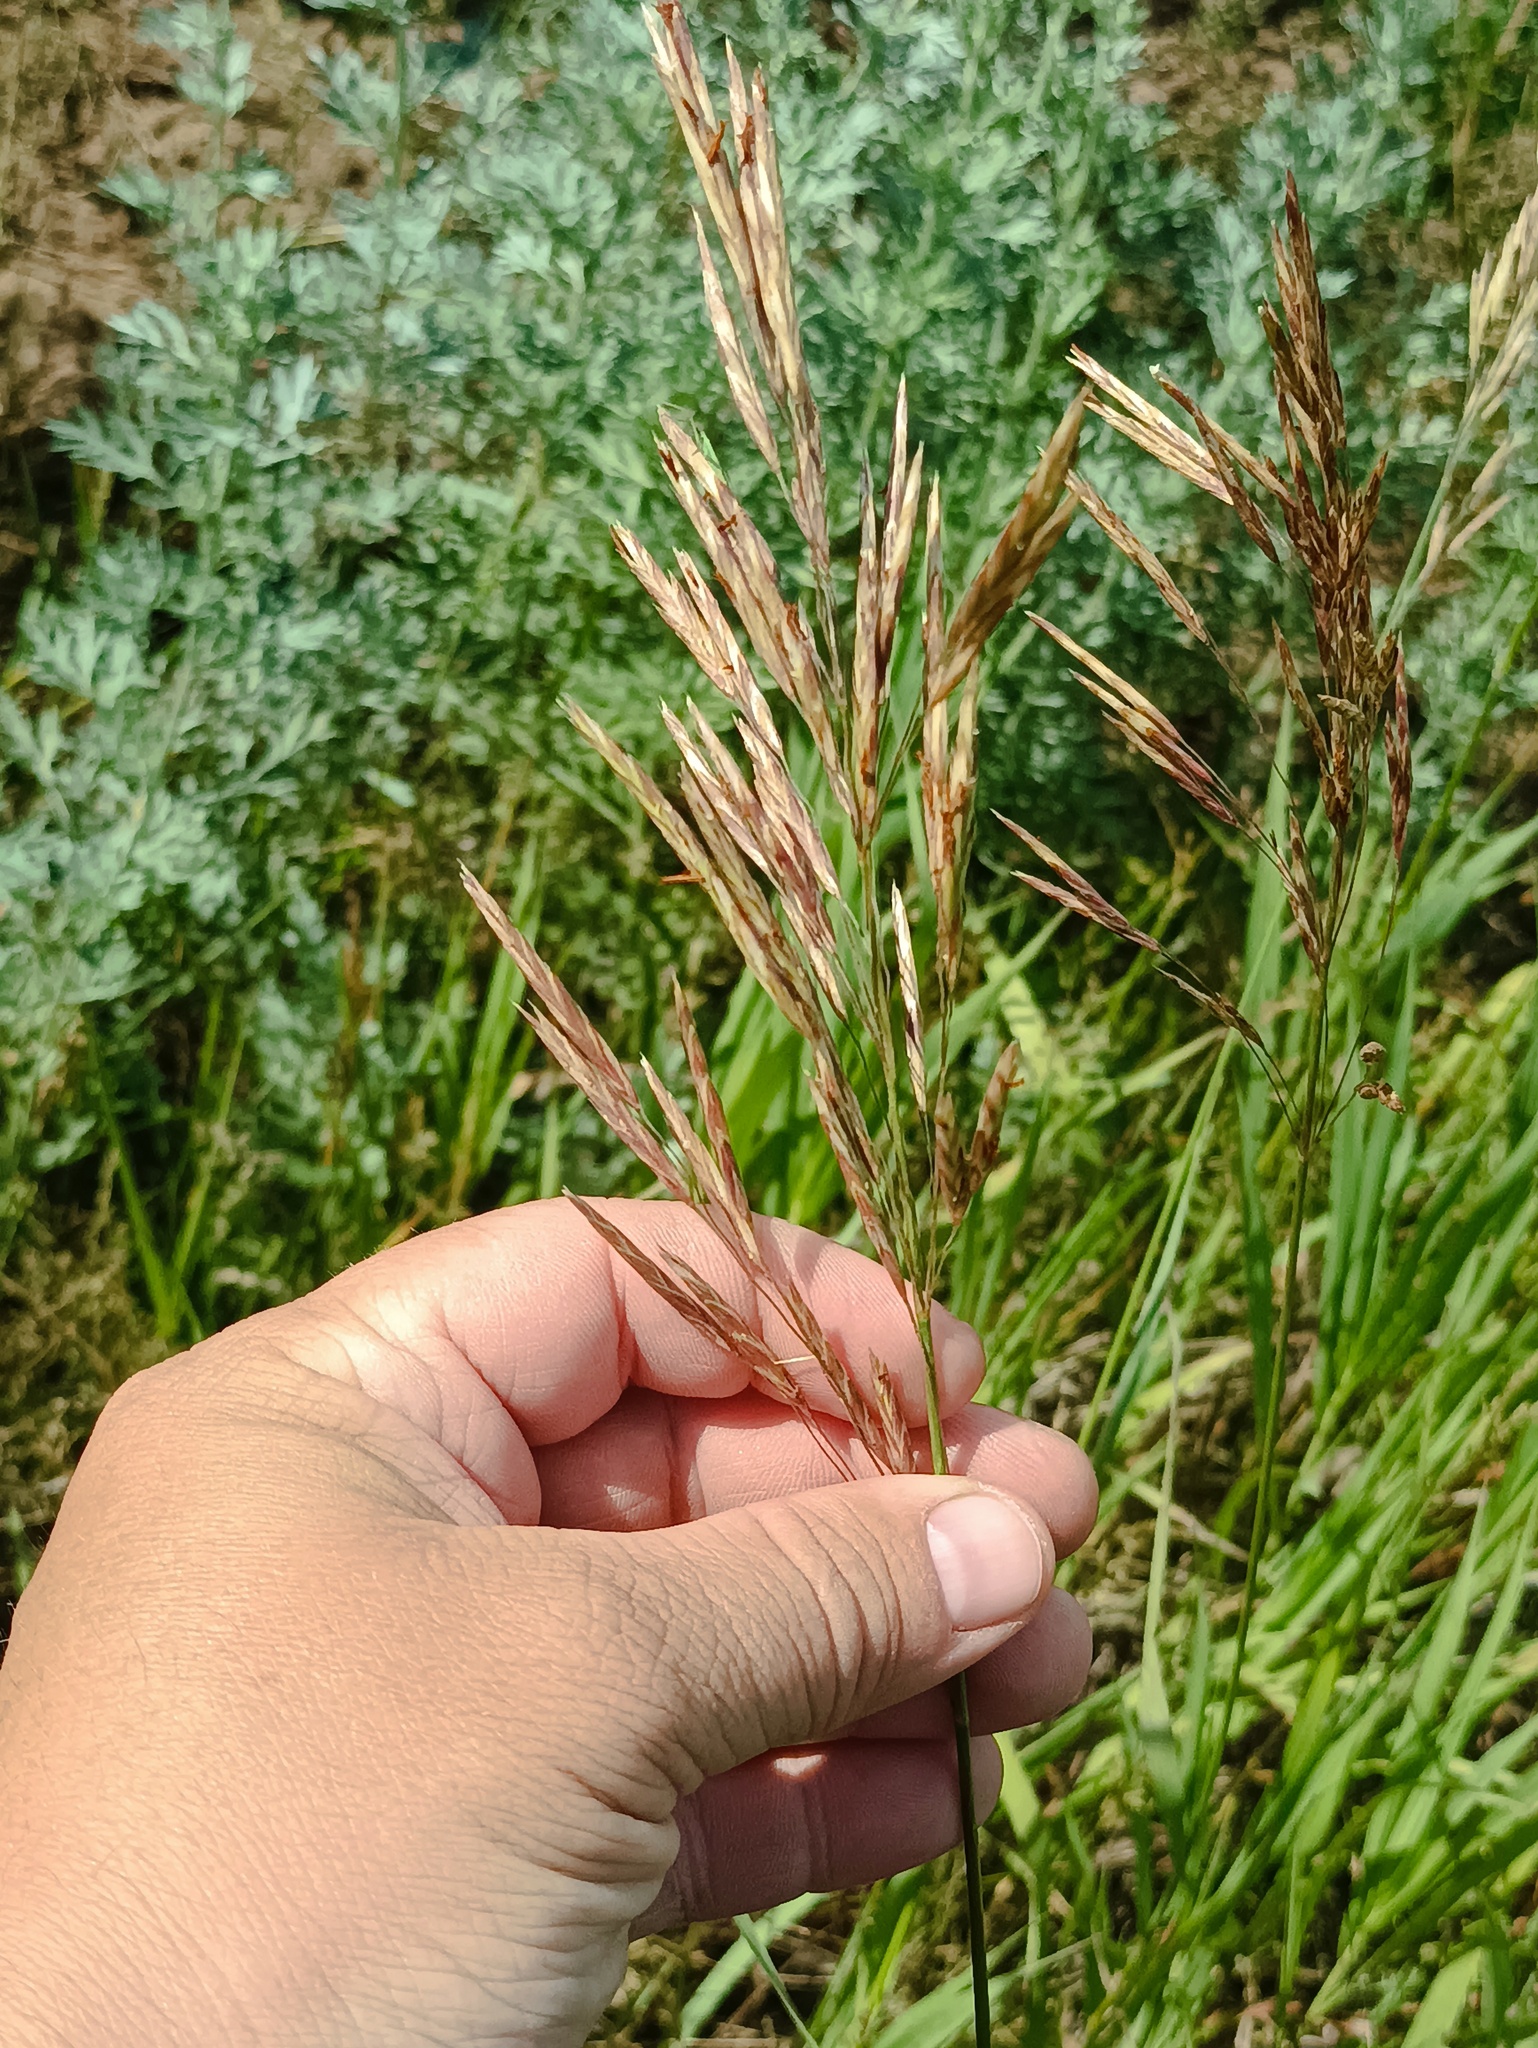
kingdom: Plantae
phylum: Tracheophyta
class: Liliopsida
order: Poales
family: Poaceae
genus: Bromus
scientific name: Bromus inermis
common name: Smooth brome
